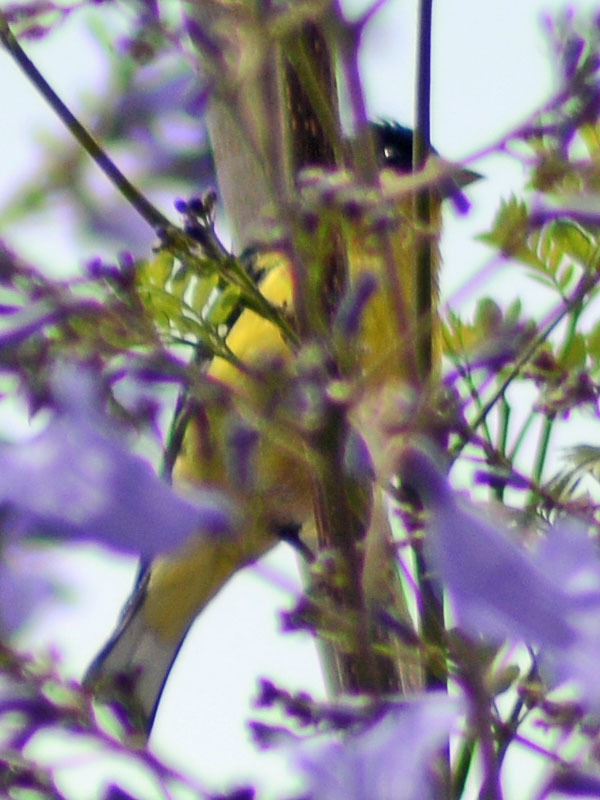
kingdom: Animalia
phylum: Chordata
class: Aves
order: Passeriformes
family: Fringillidae
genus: Spinus
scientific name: Spinus psaltria
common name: Lesser goldfinch
